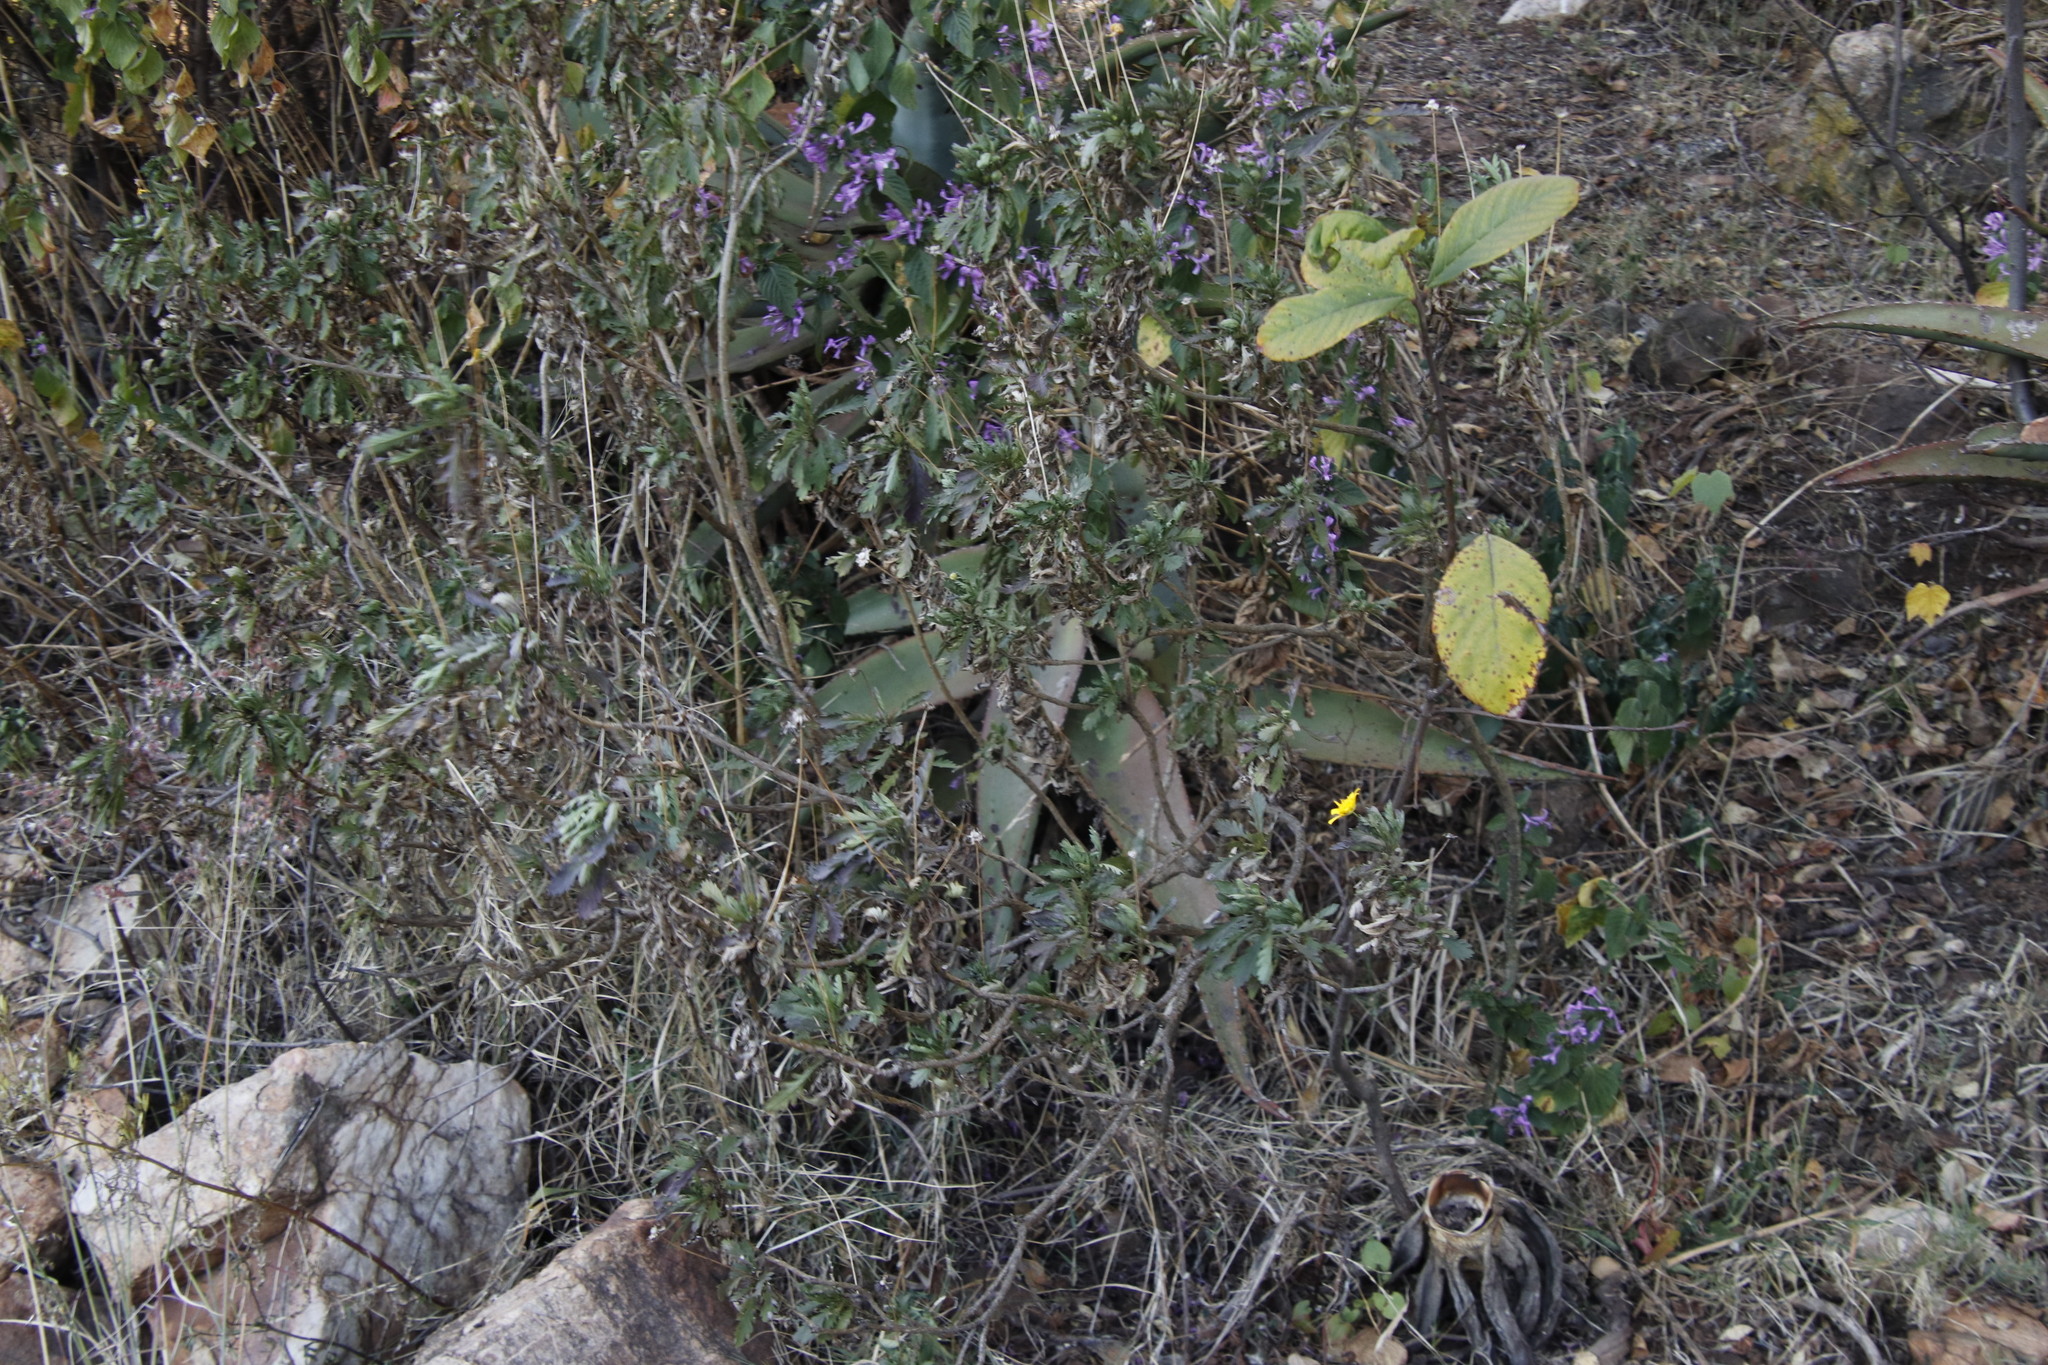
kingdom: Plantae
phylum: Tracheophyta
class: Magnoliopsida
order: Asterales
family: Asteraceae
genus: Euryops
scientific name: Euryops chrysanthemoides
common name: Bull's eye
